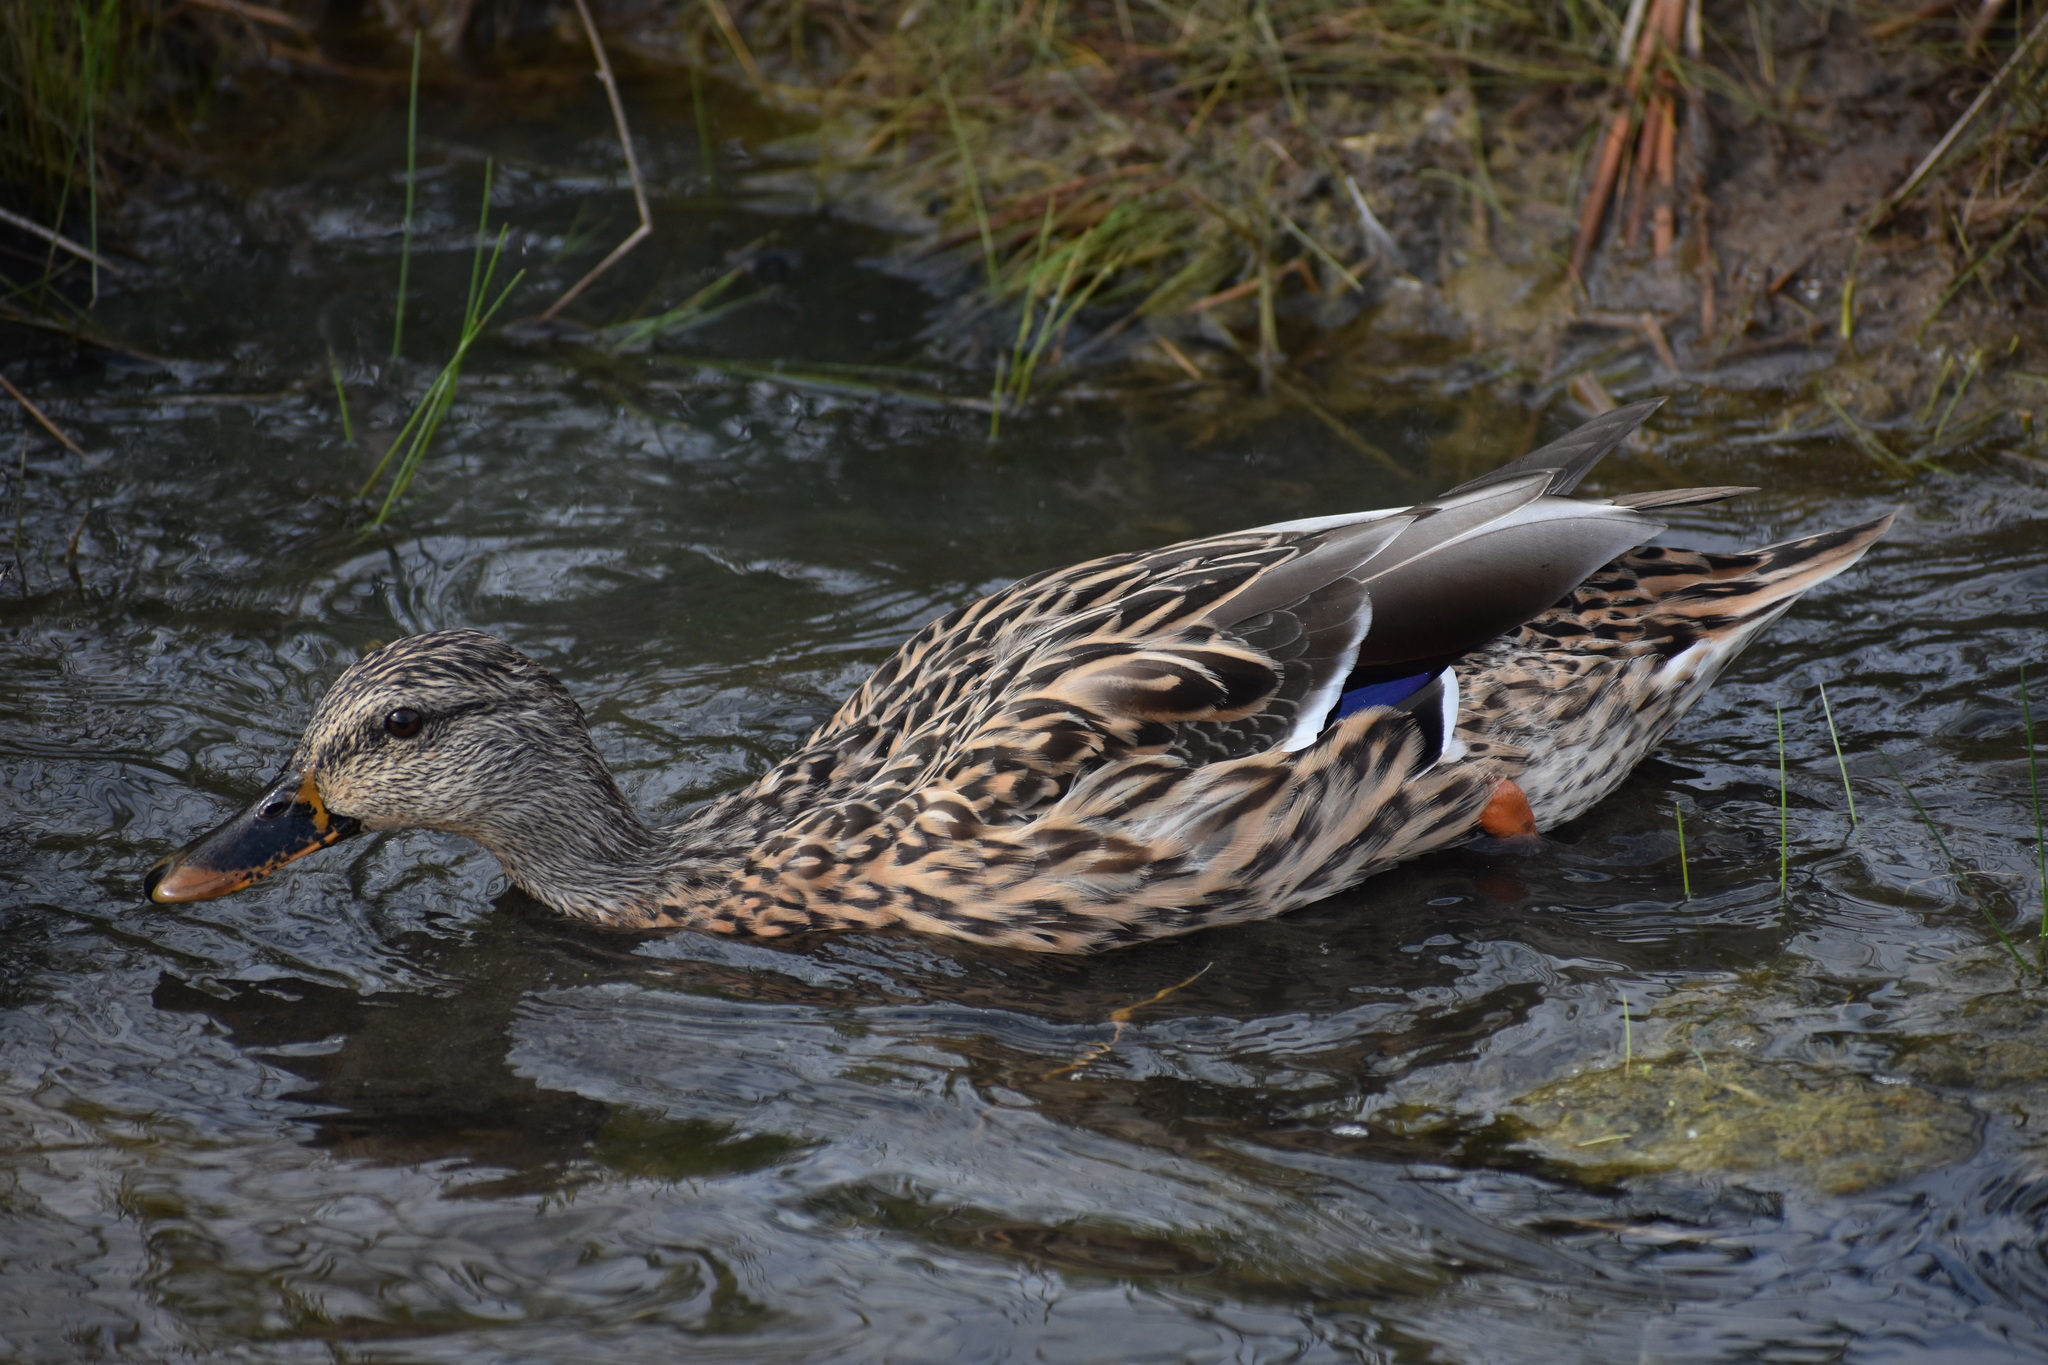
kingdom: Animalia
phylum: Chordata
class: Aves
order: Anseriformes
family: Anatidae
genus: Anas
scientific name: Anas platyrhynchos
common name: Mallard
